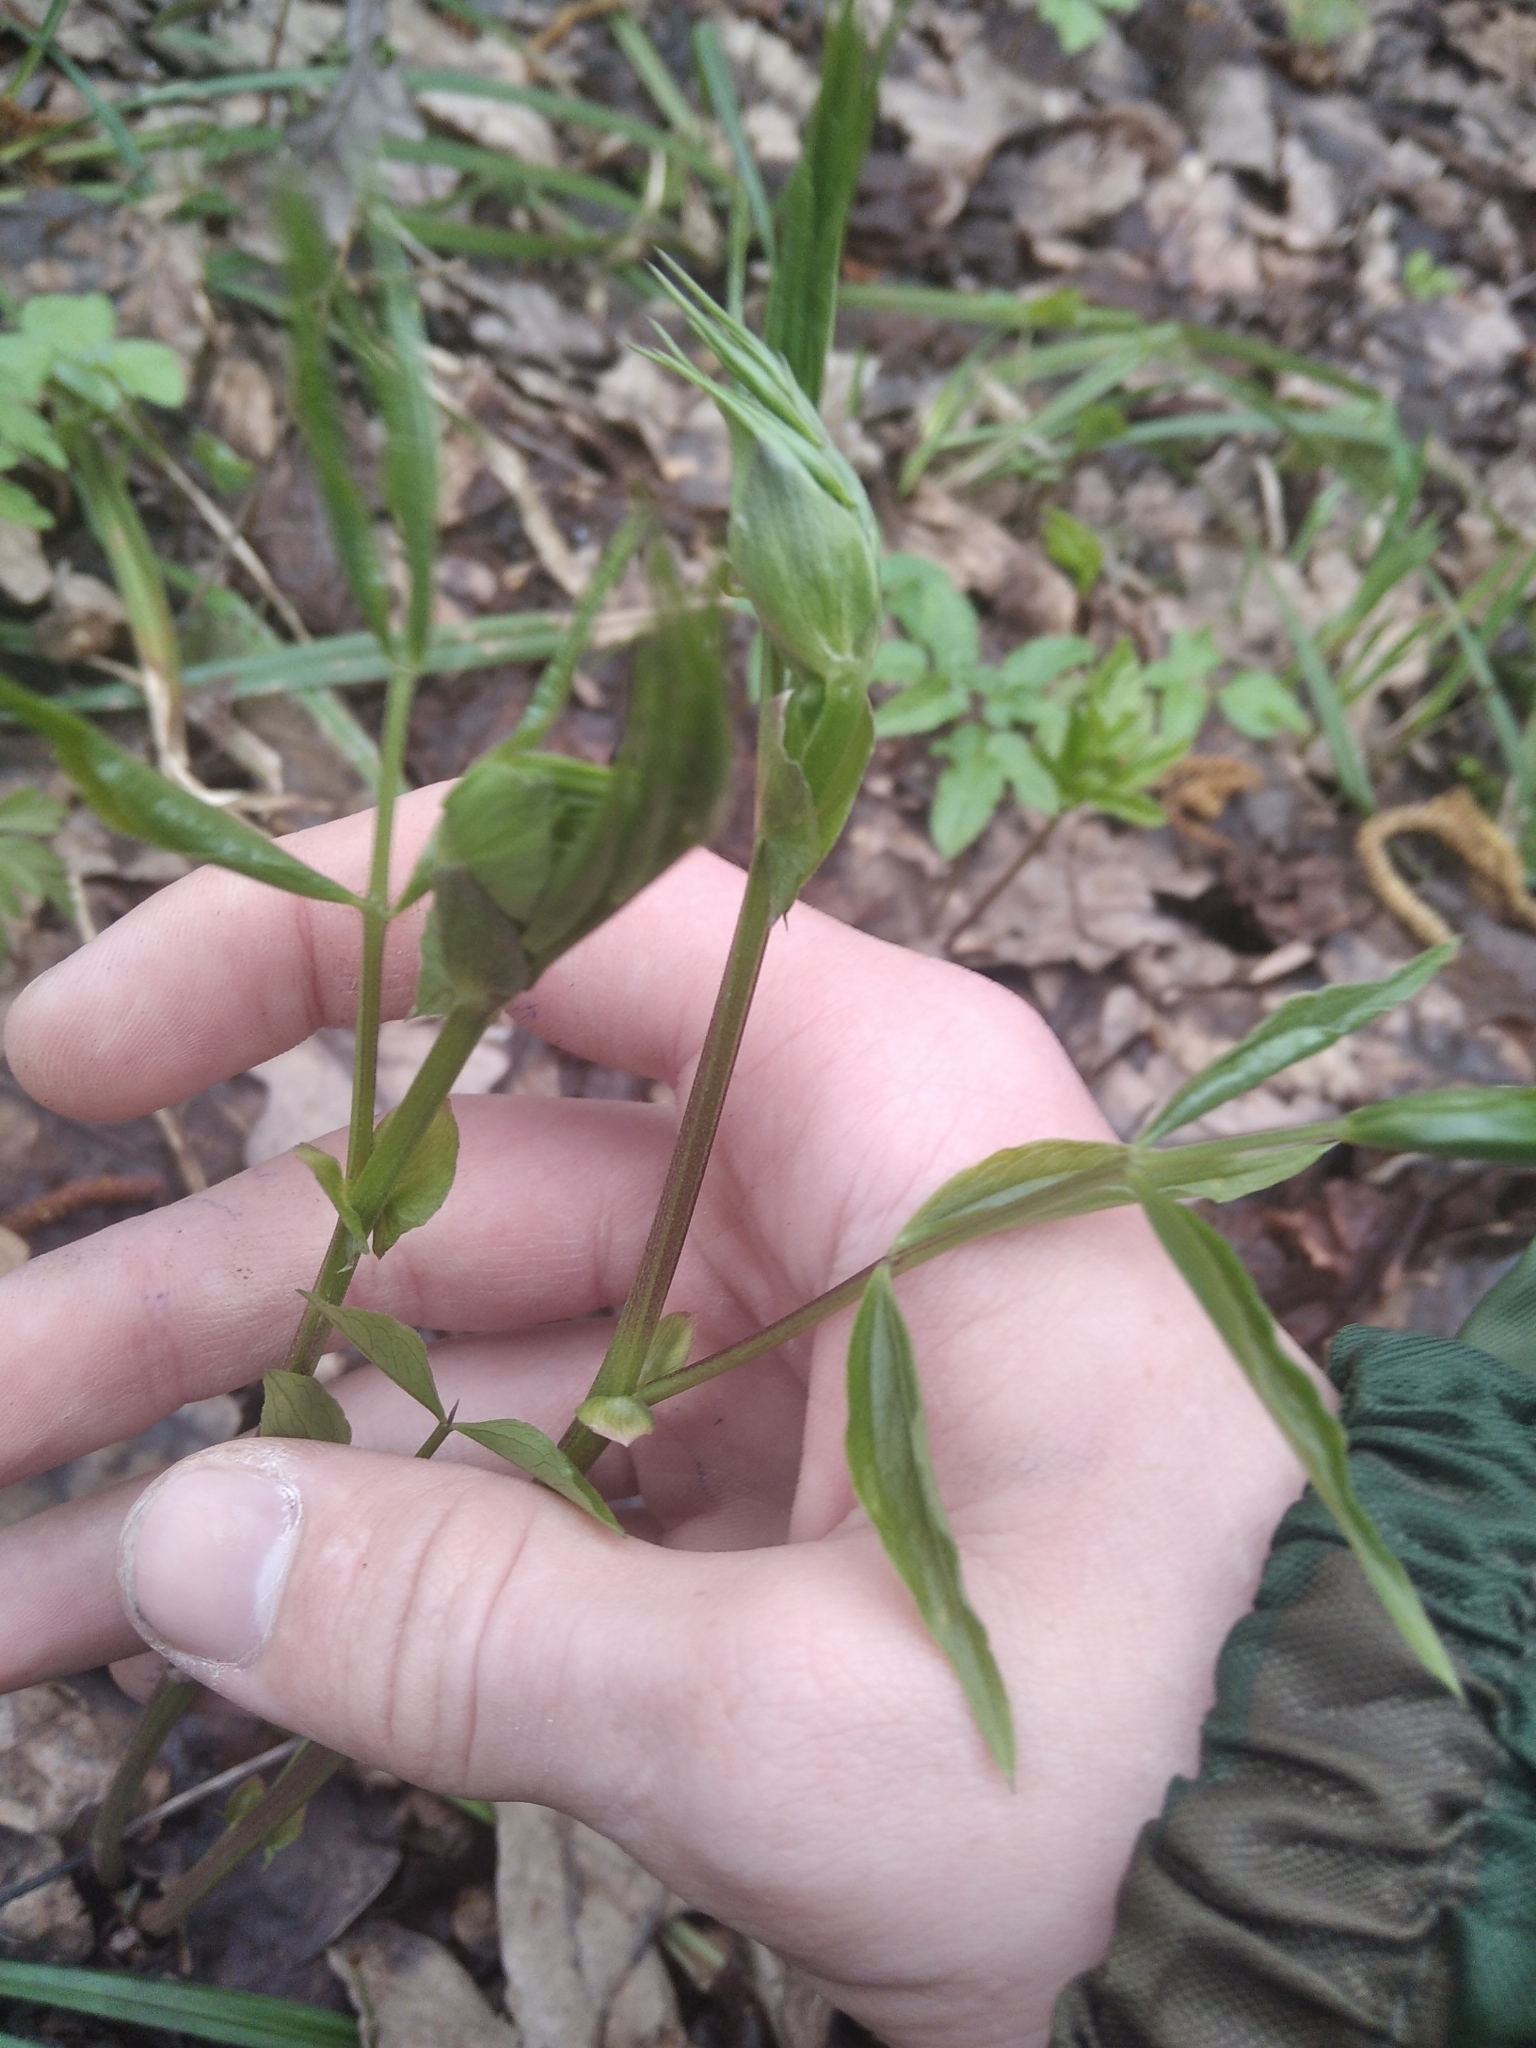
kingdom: Plantae
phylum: Tracheophyta
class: Magnoliopsida
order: Fabales
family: Fabaceae
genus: Lathyrus
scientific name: Lathyrus vernus
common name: Spring pea
